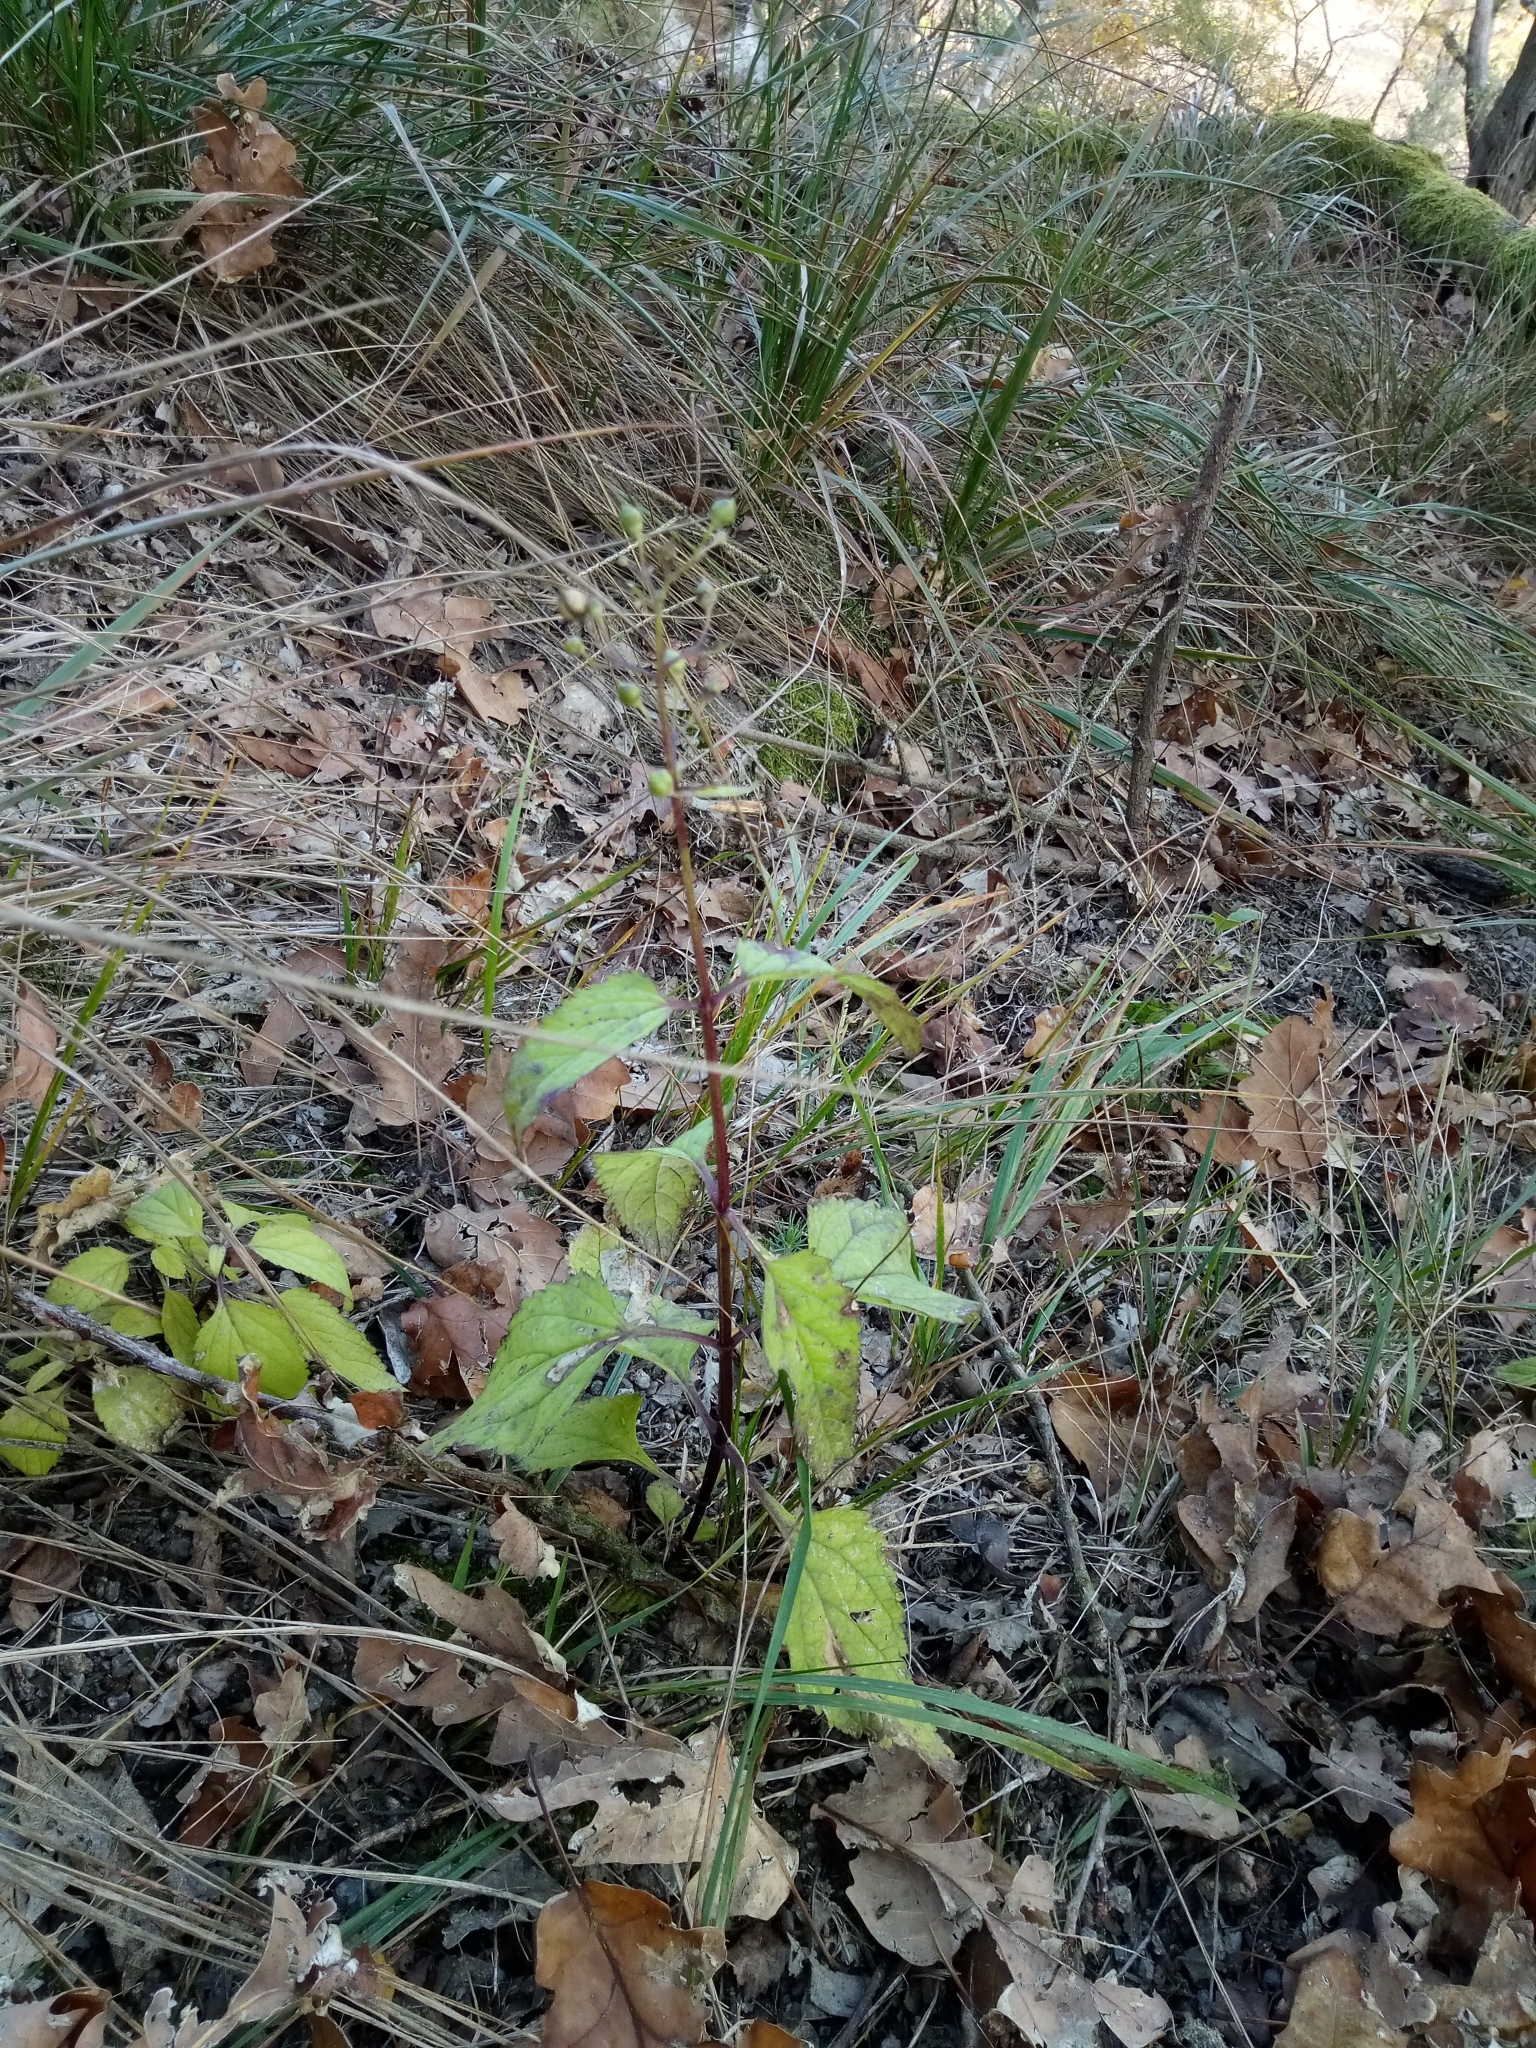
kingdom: Plantae
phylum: Tracheophyta
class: Magnoliopsida
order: Lamiales
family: Scrophulariaceae
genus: Scrophularia
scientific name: Scrophularia nodosa
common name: Common figwort
